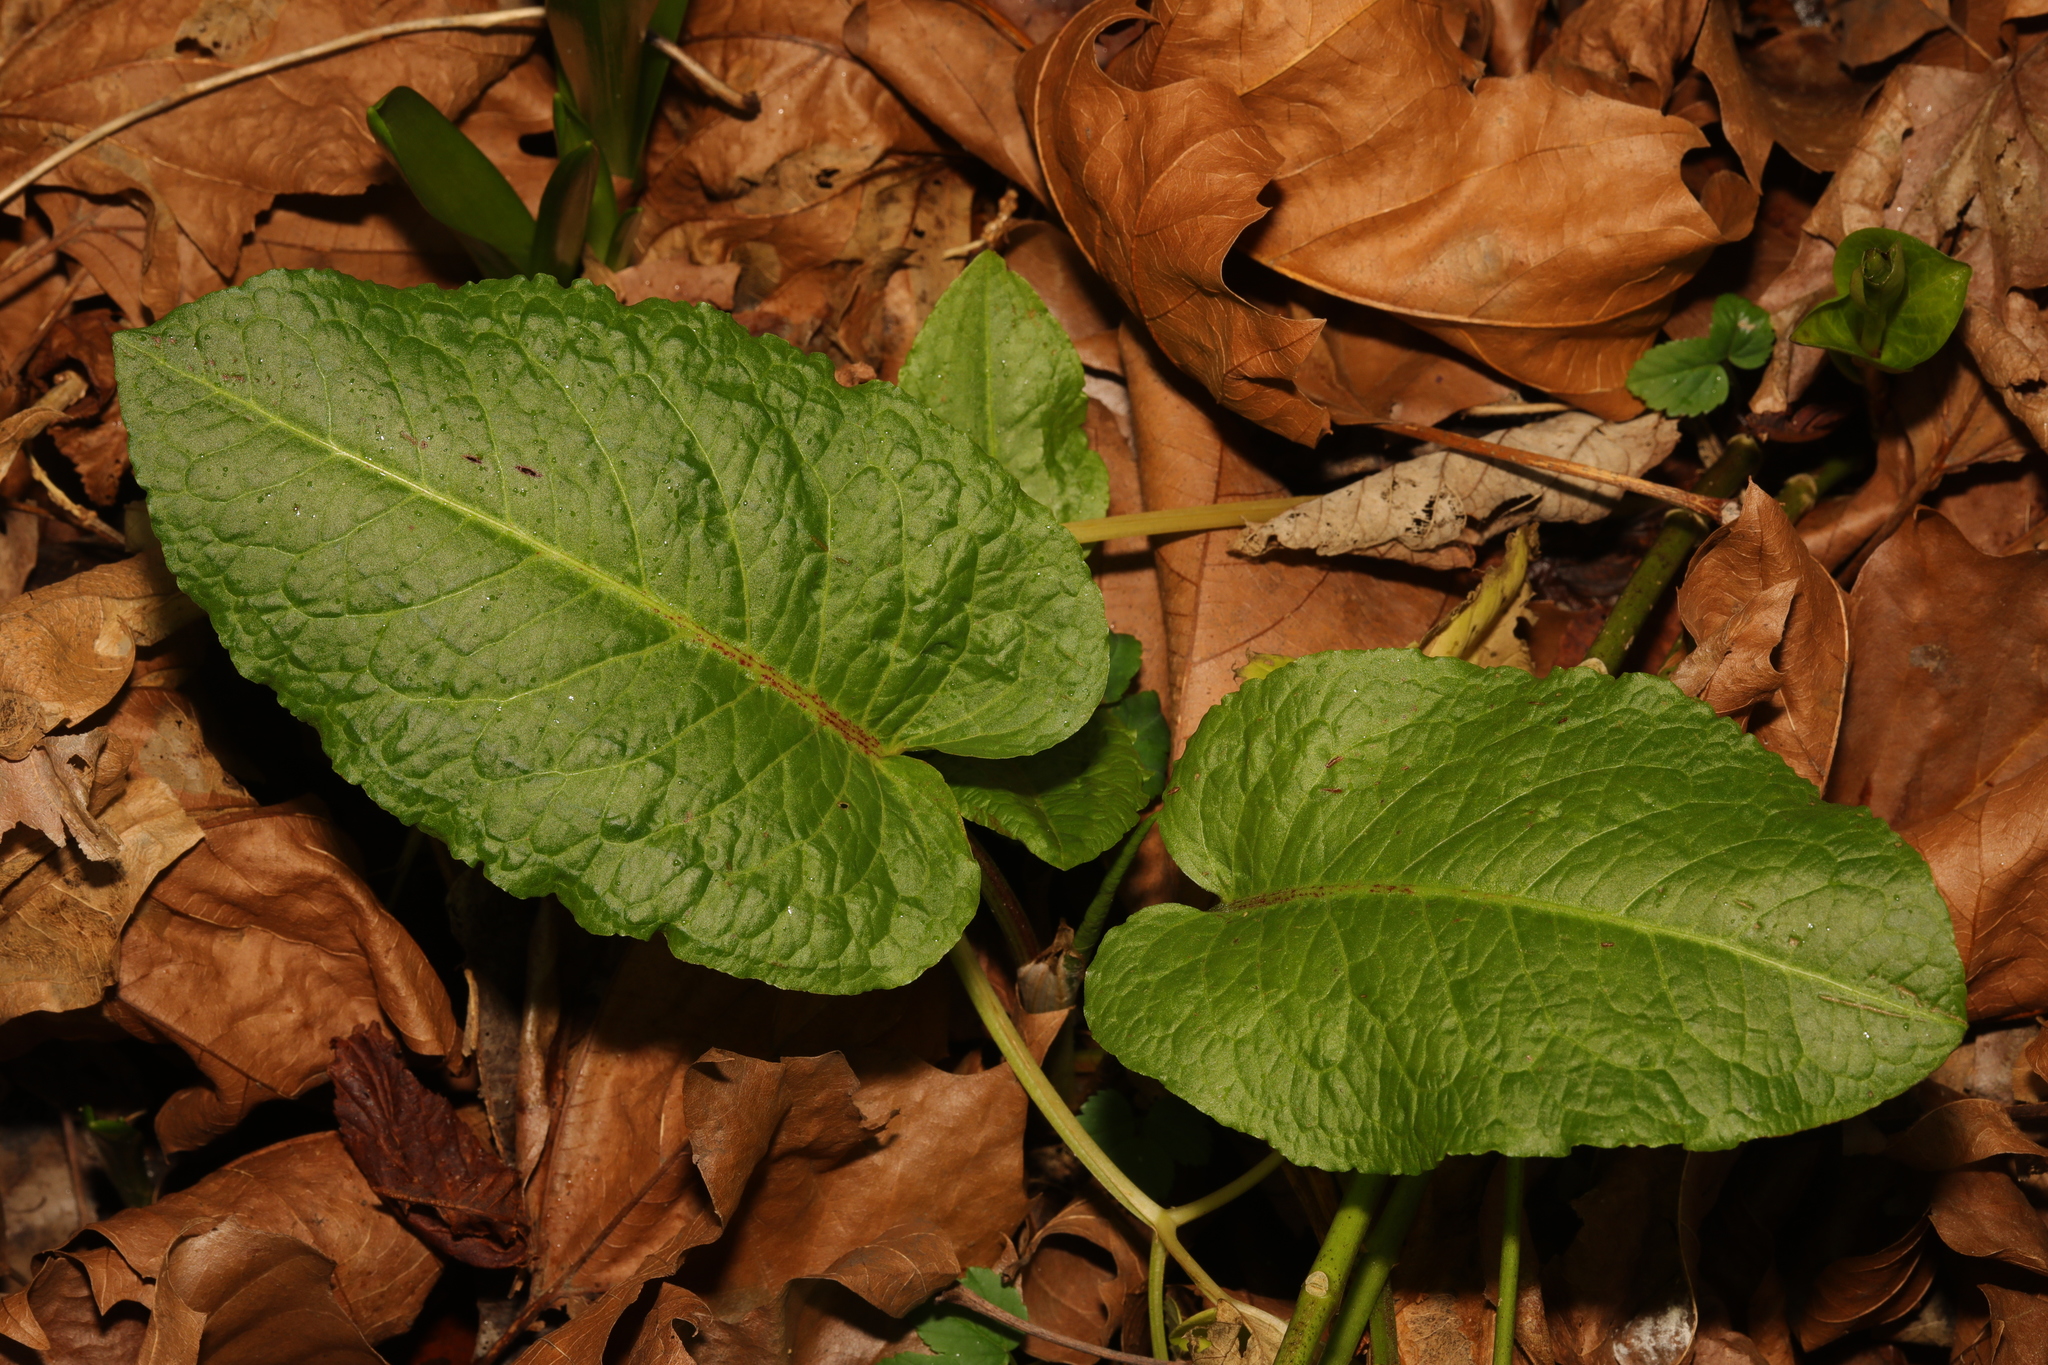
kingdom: Plantae
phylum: Tracheophyta
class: Magnoliopsida
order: Caryophyllales
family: Polygonaceae
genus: Rumex
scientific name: Rumex obtusifolius
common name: Bitter dock
